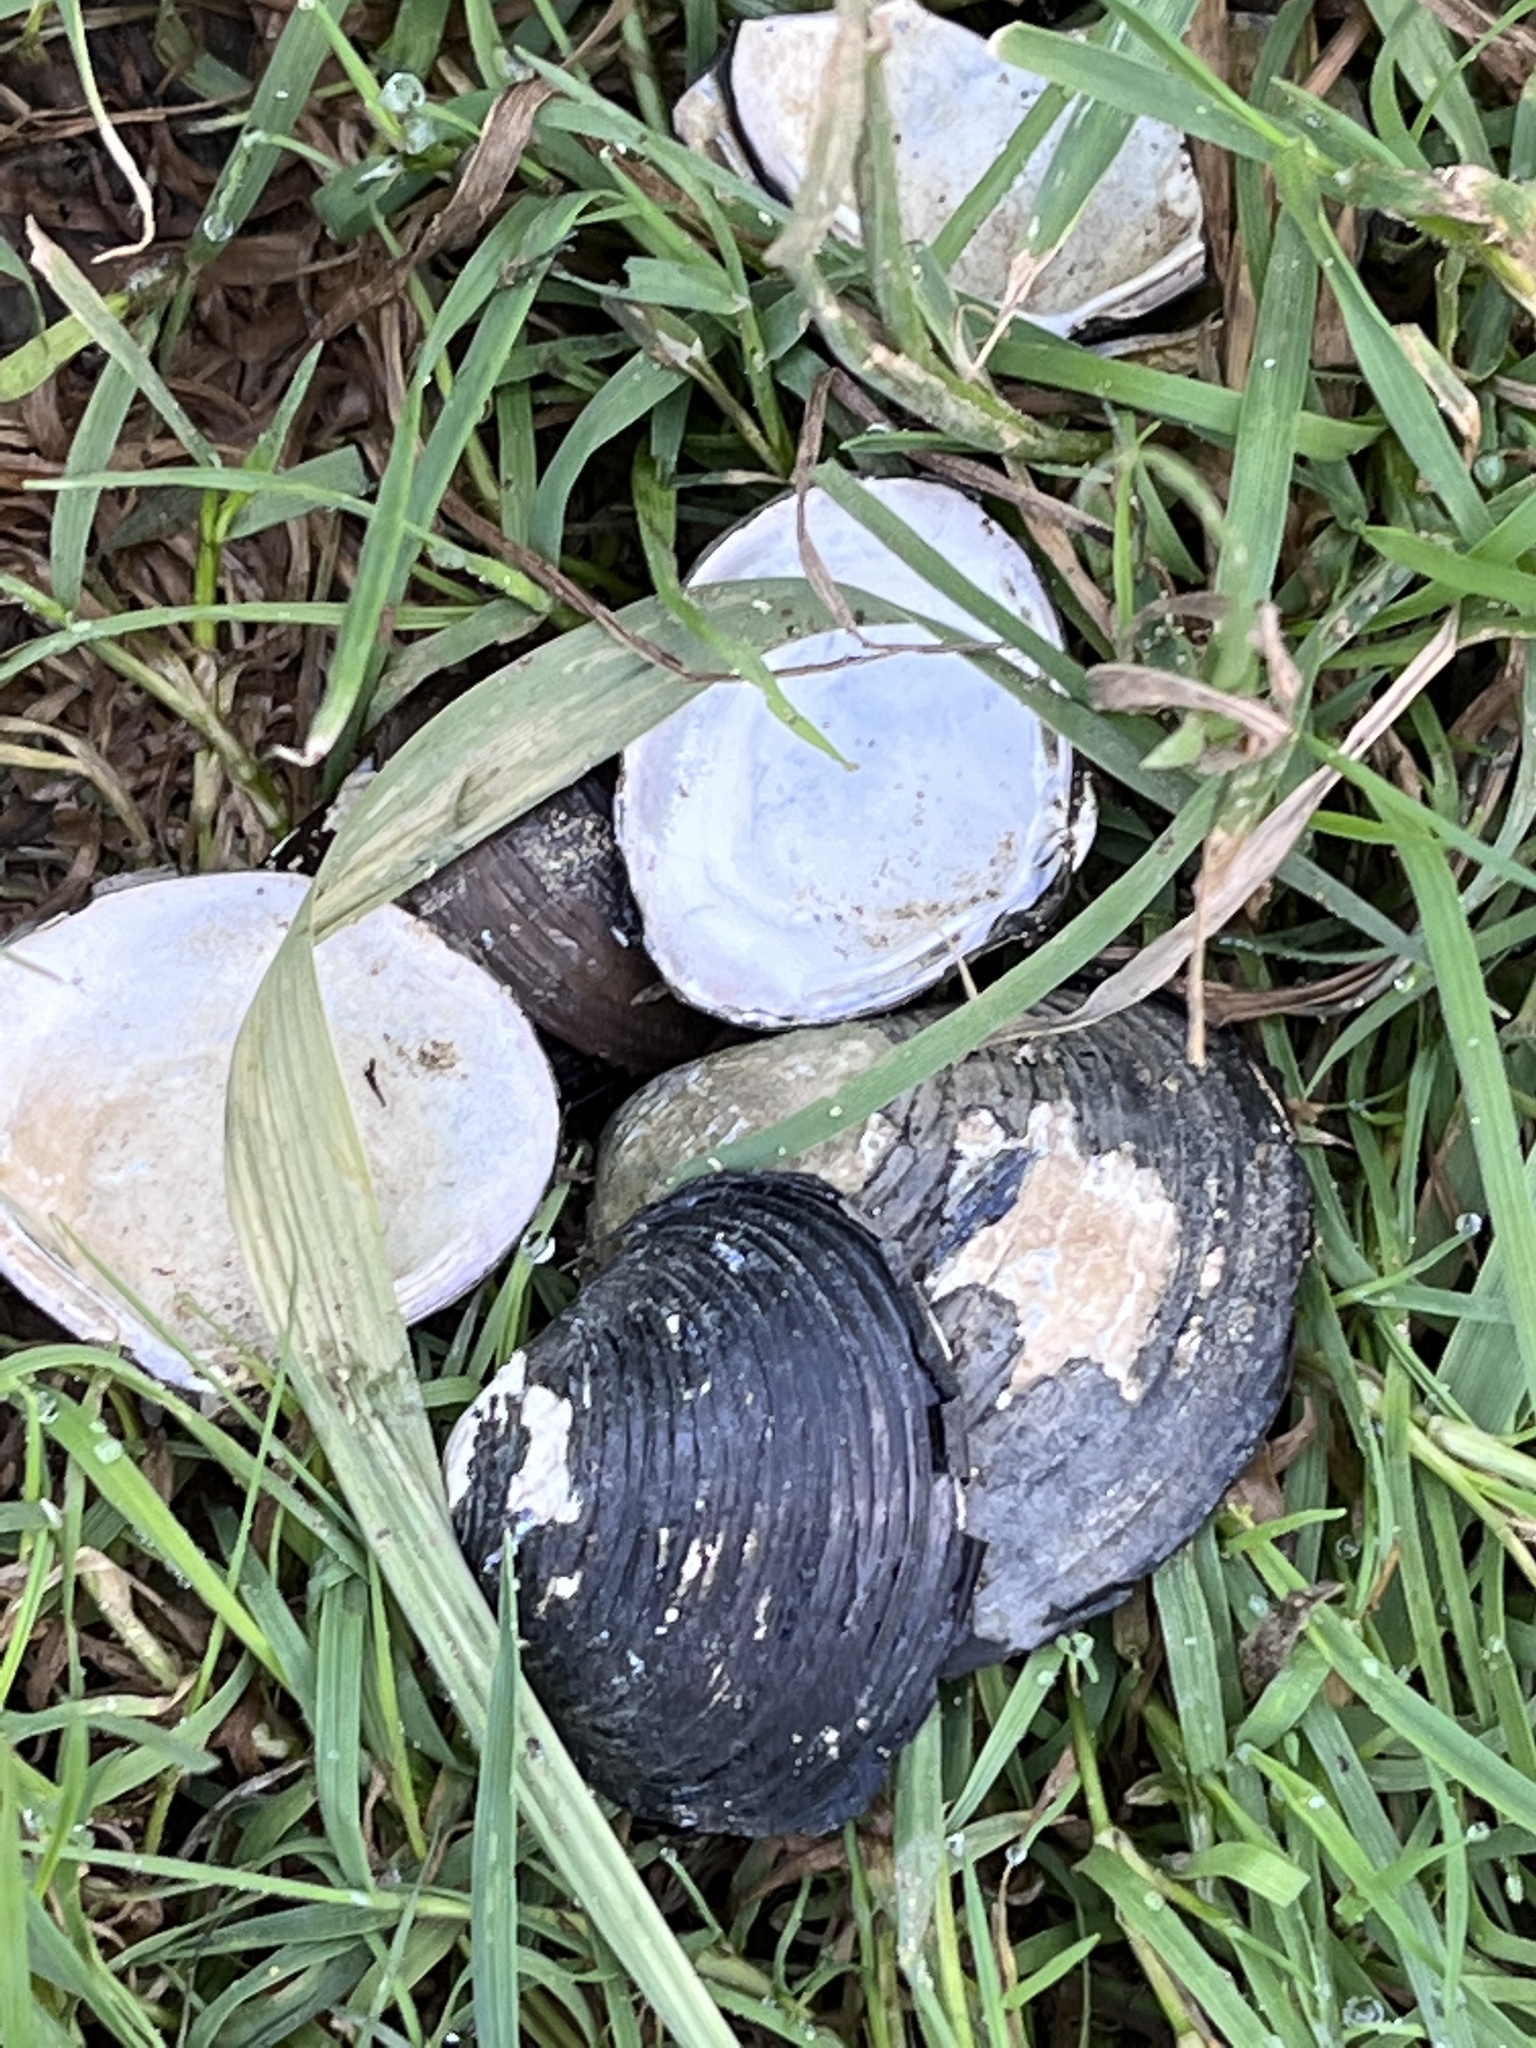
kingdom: Animalia
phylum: Mollusca
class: Bivalvia
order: Venerida
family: Cyrenidae
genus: Corbicula
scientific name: Corbicula fluminea
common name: Asian clam
